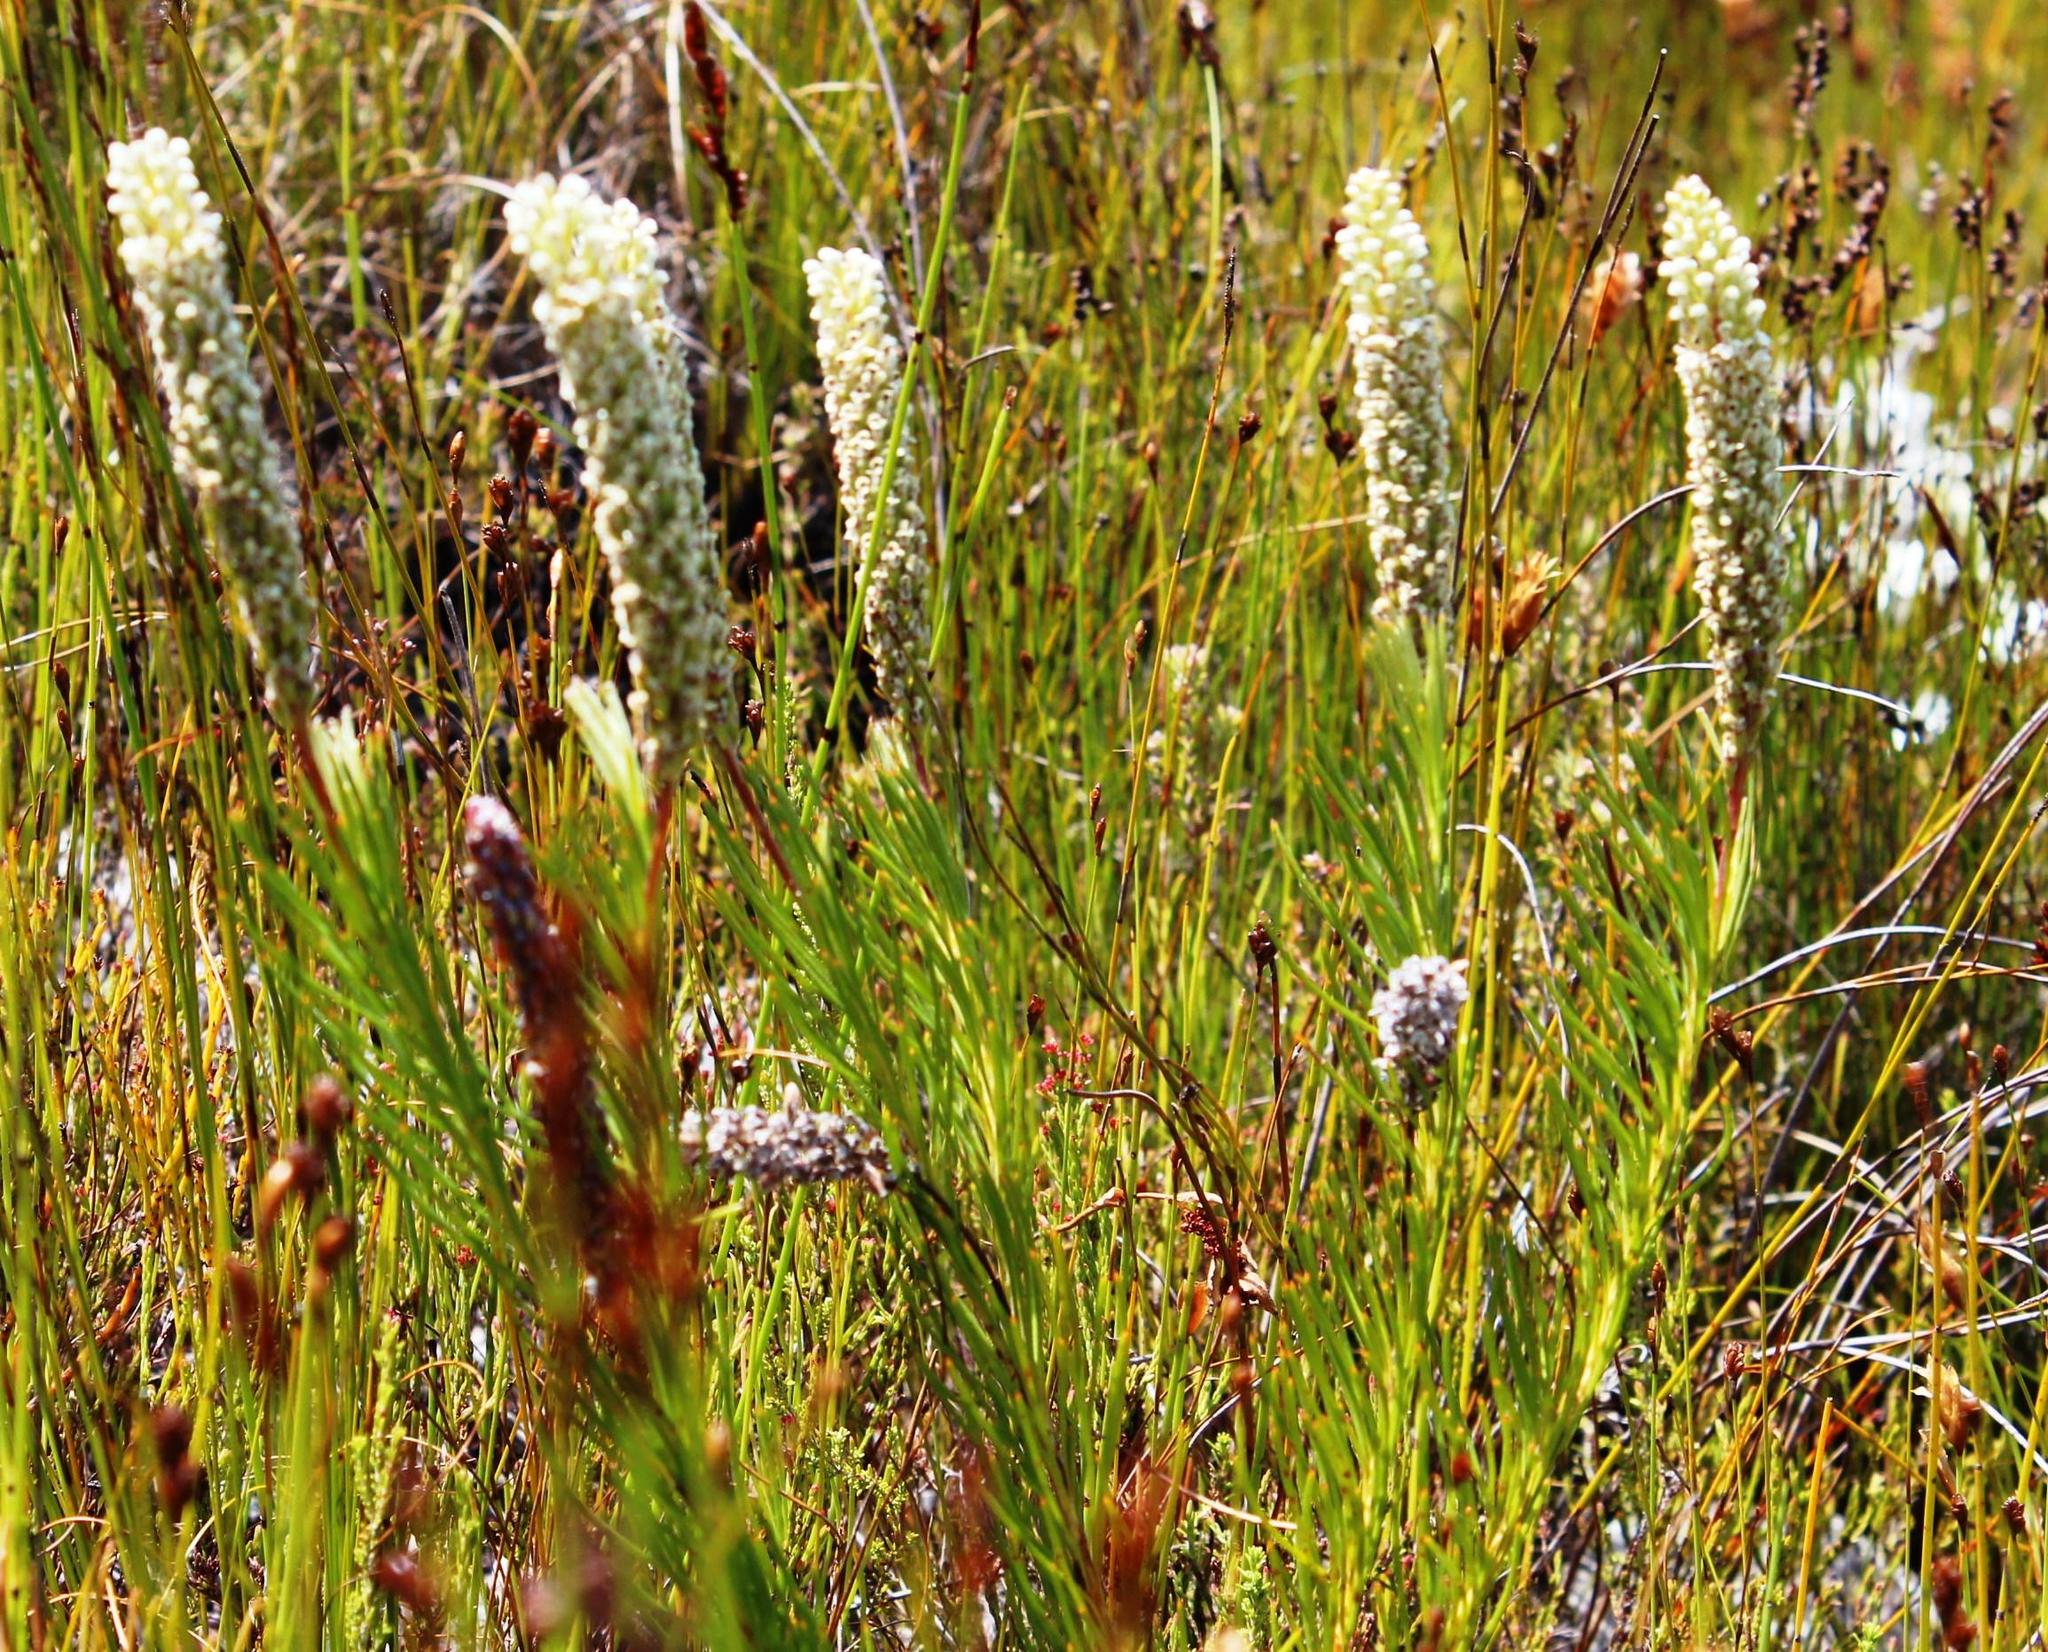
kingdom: Plantae
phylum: Tracheophyta
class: Magnoliopsida
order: Proteales
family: Proteaceae
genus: Spatalla
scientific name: Spatalla curvifolia
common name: White-stalked spoon
